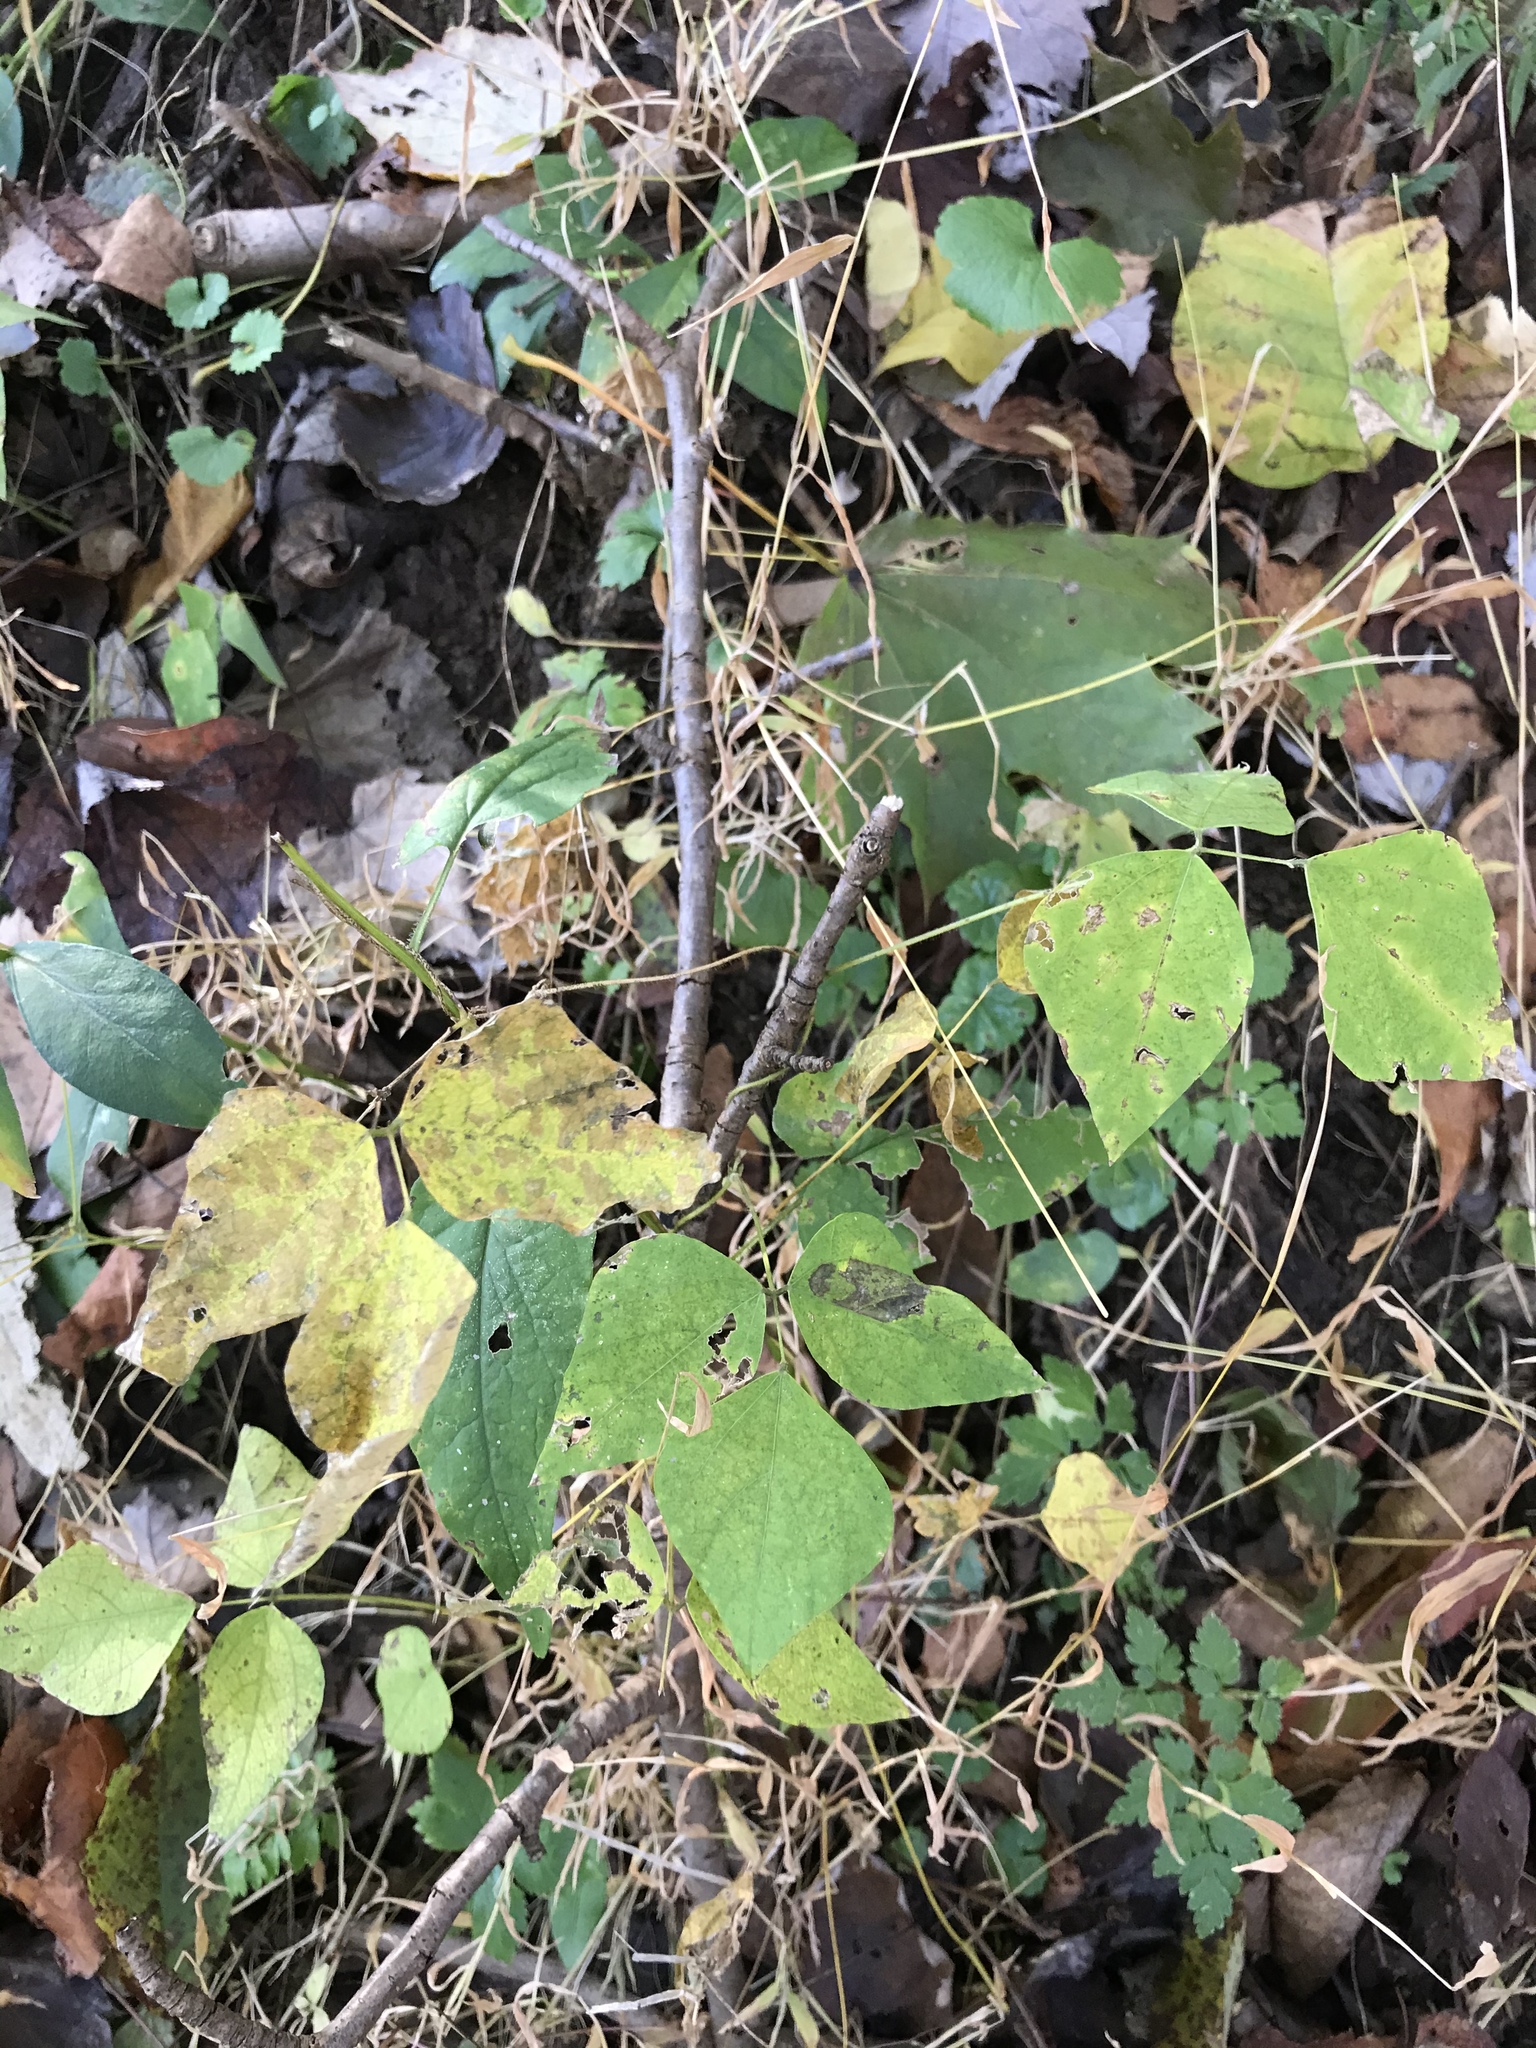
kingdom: Plantae
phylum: Tracheophyta
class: Magnoliopsida
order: Fabales
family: Fabaceae
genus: Amphicarpaea
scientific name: Amphicarpaea bracteata
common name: American hog peanut
